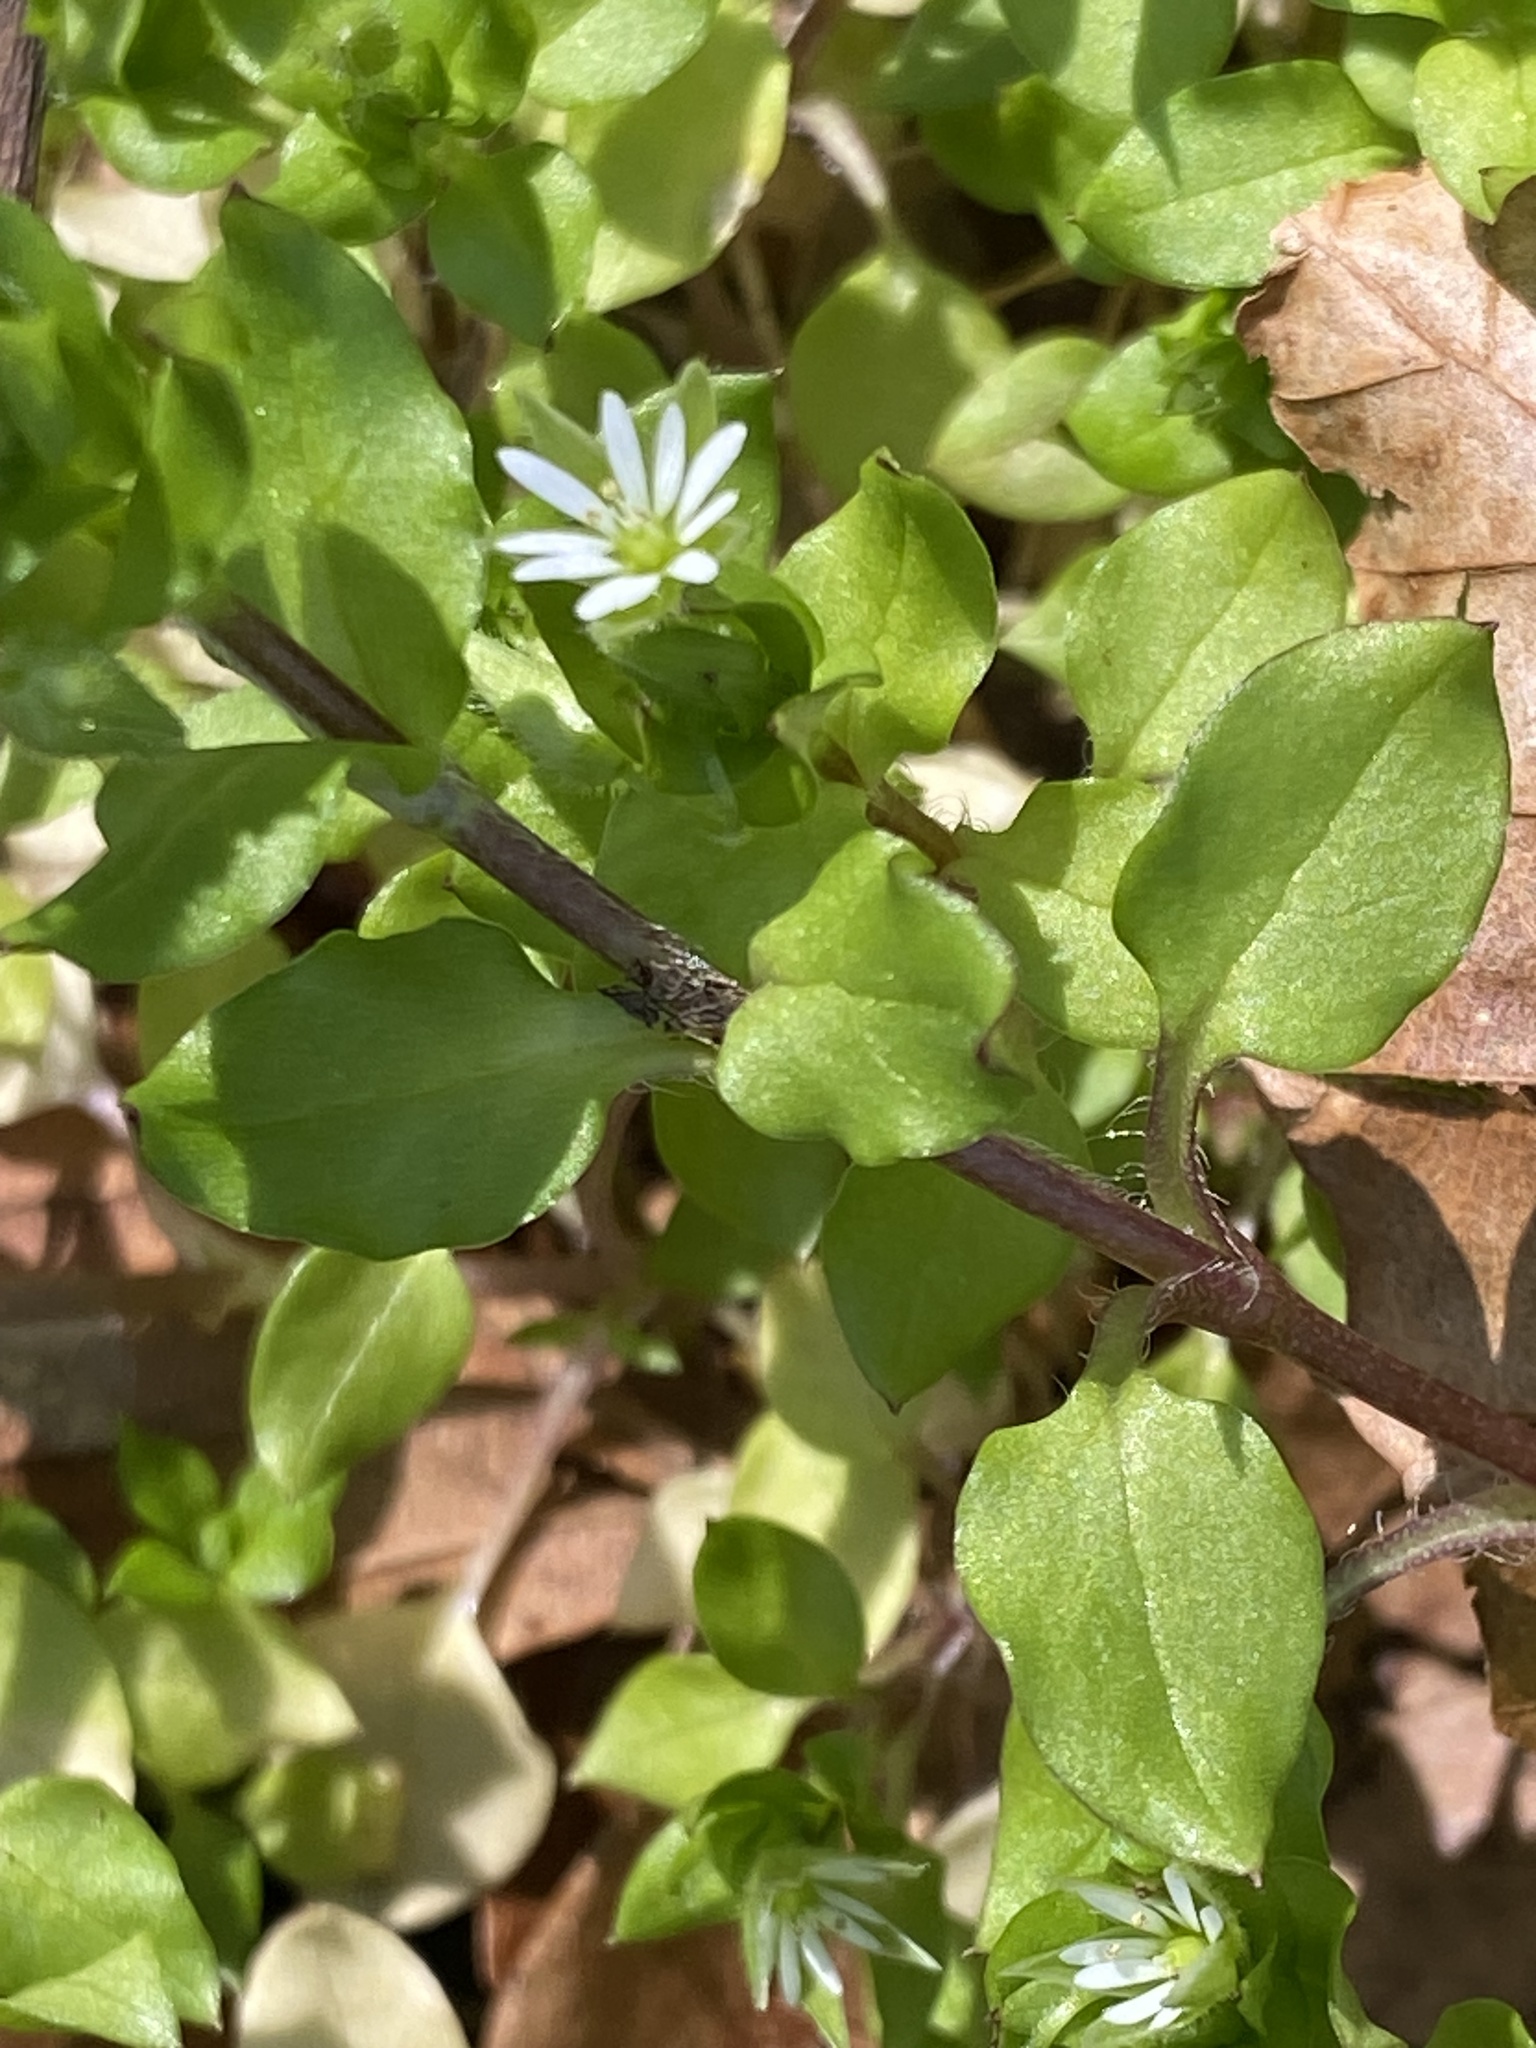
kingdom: Plantae
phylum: Tracheophyta
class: Magnoliopsida
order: Caryophyllales
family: Caryophyllaceae
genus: Stellaria
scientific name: Stellaria media
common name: Common chickweed
